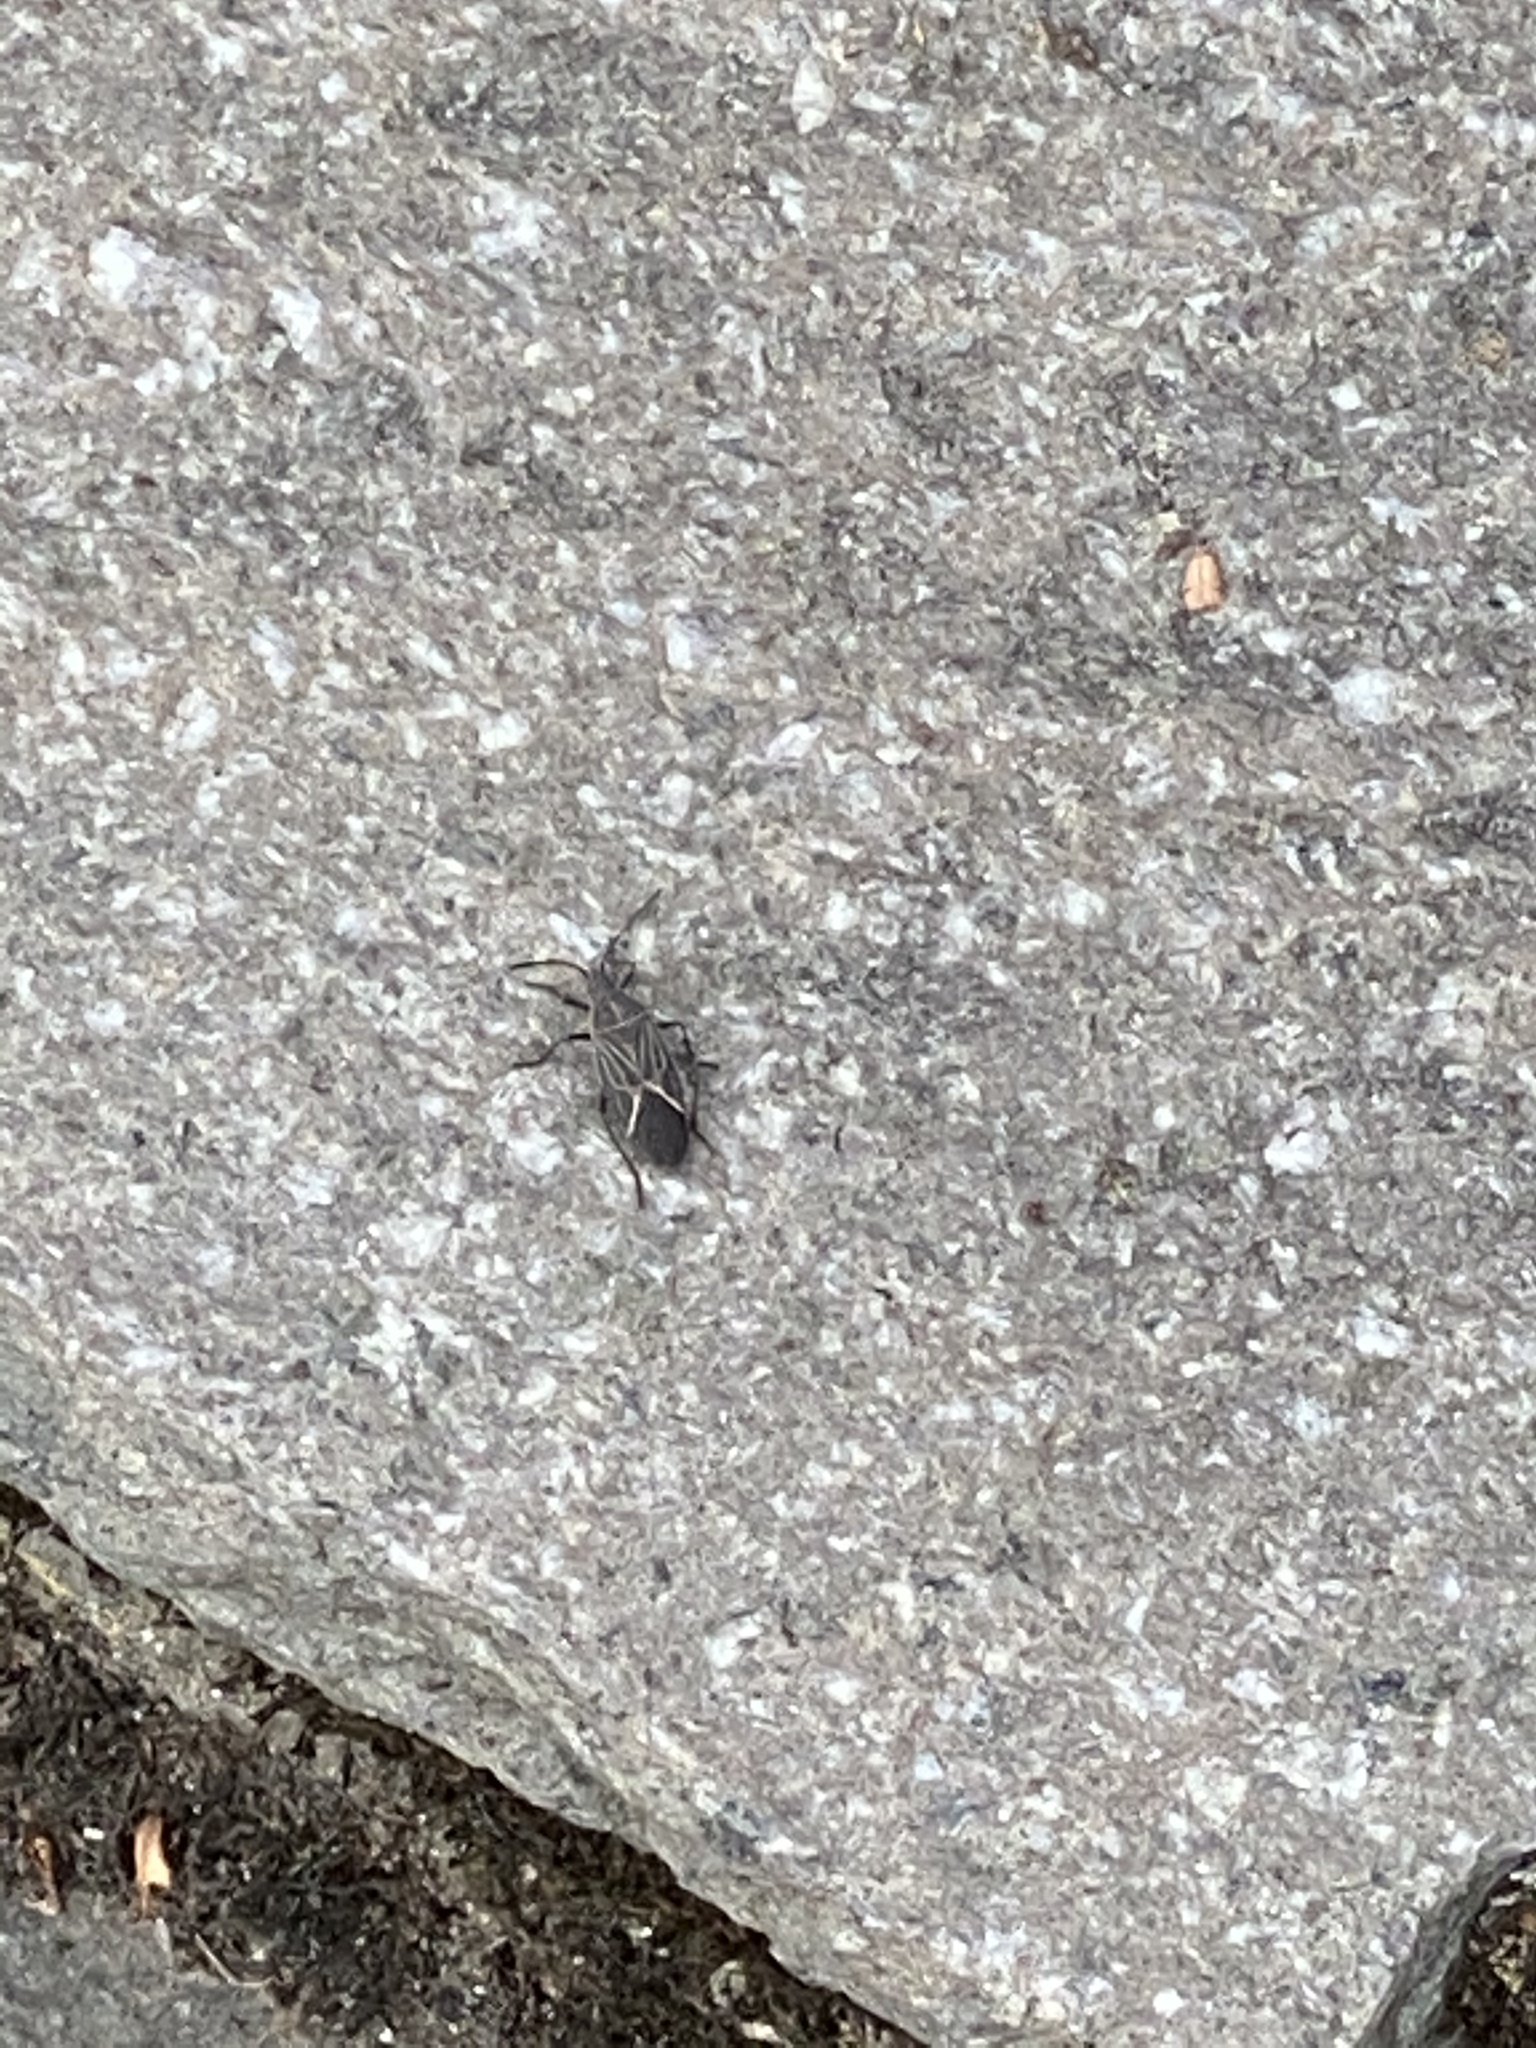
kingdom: Animalia
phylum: Arthropoda
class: Insecta
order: Hemiptera
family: Rhopalidae
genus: Boisea
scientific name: Boisea rubrolineata
